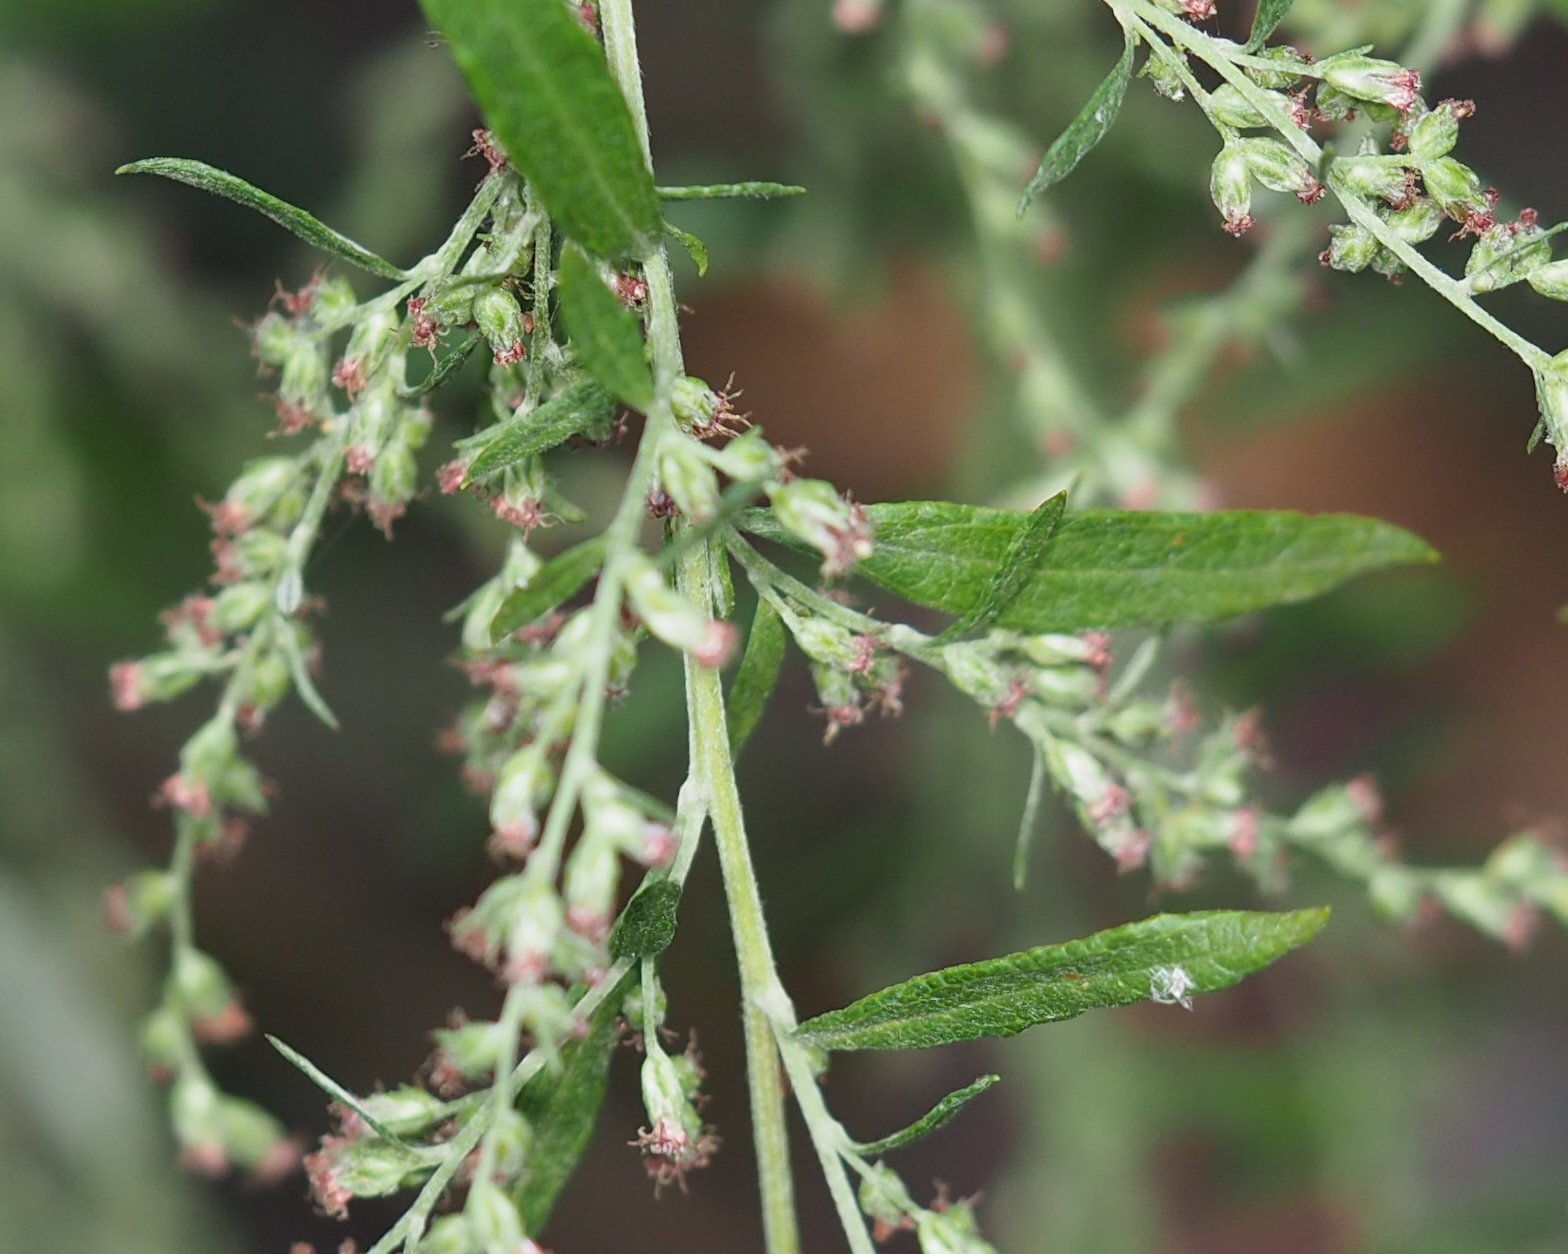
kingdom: Plantae
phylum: Tracheophyta
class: Magnoliopsida
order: Asterales
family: Asteraceae
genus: Artemisia
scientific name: Artemisia vulgaris
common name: Mugwort
